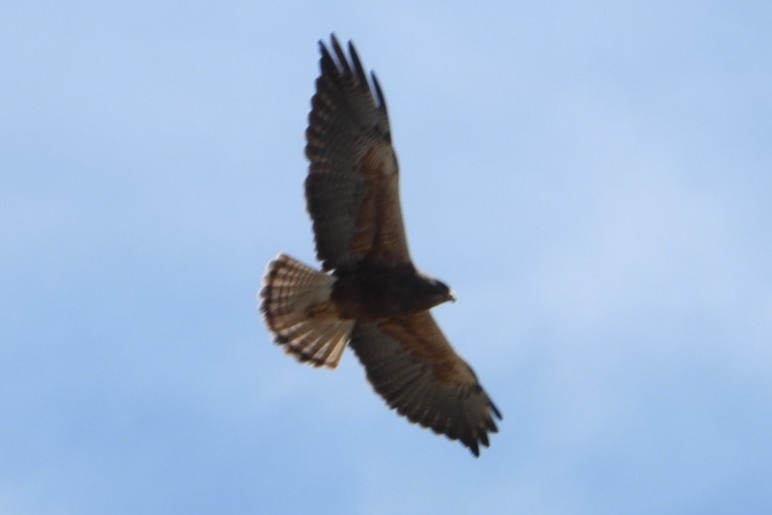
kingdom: Animalia
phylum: Chordata
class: Aves
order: Accipitriformes
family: Accipitridae
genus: Buteo
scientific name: Buteo swainsoni
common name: Swainson's hawk
